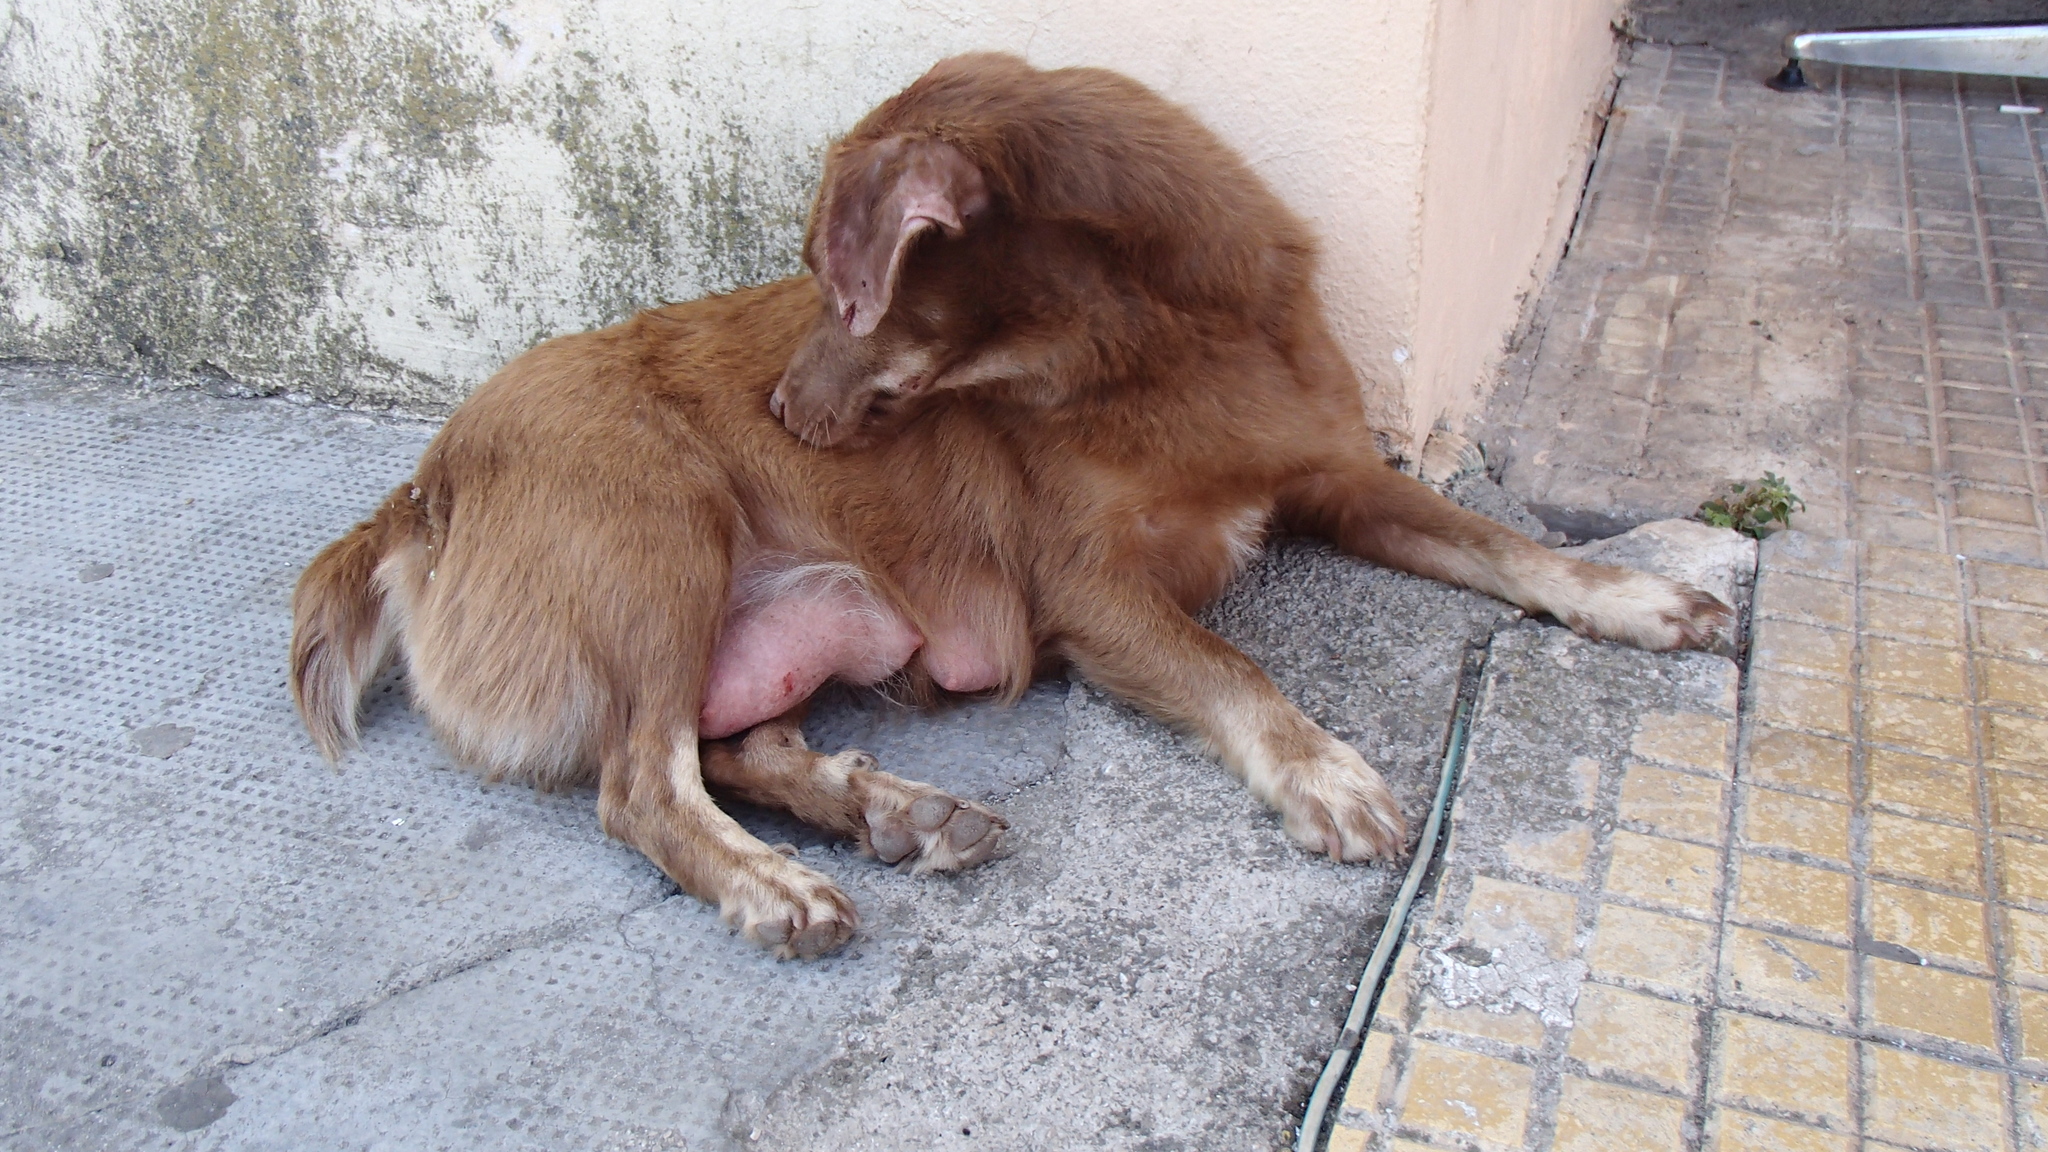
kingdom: Animalia
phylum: Chordata
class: Mammalia
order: Carnivora
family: Canidae
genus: Canis
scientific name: Canis lupus
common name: Gray wolf
